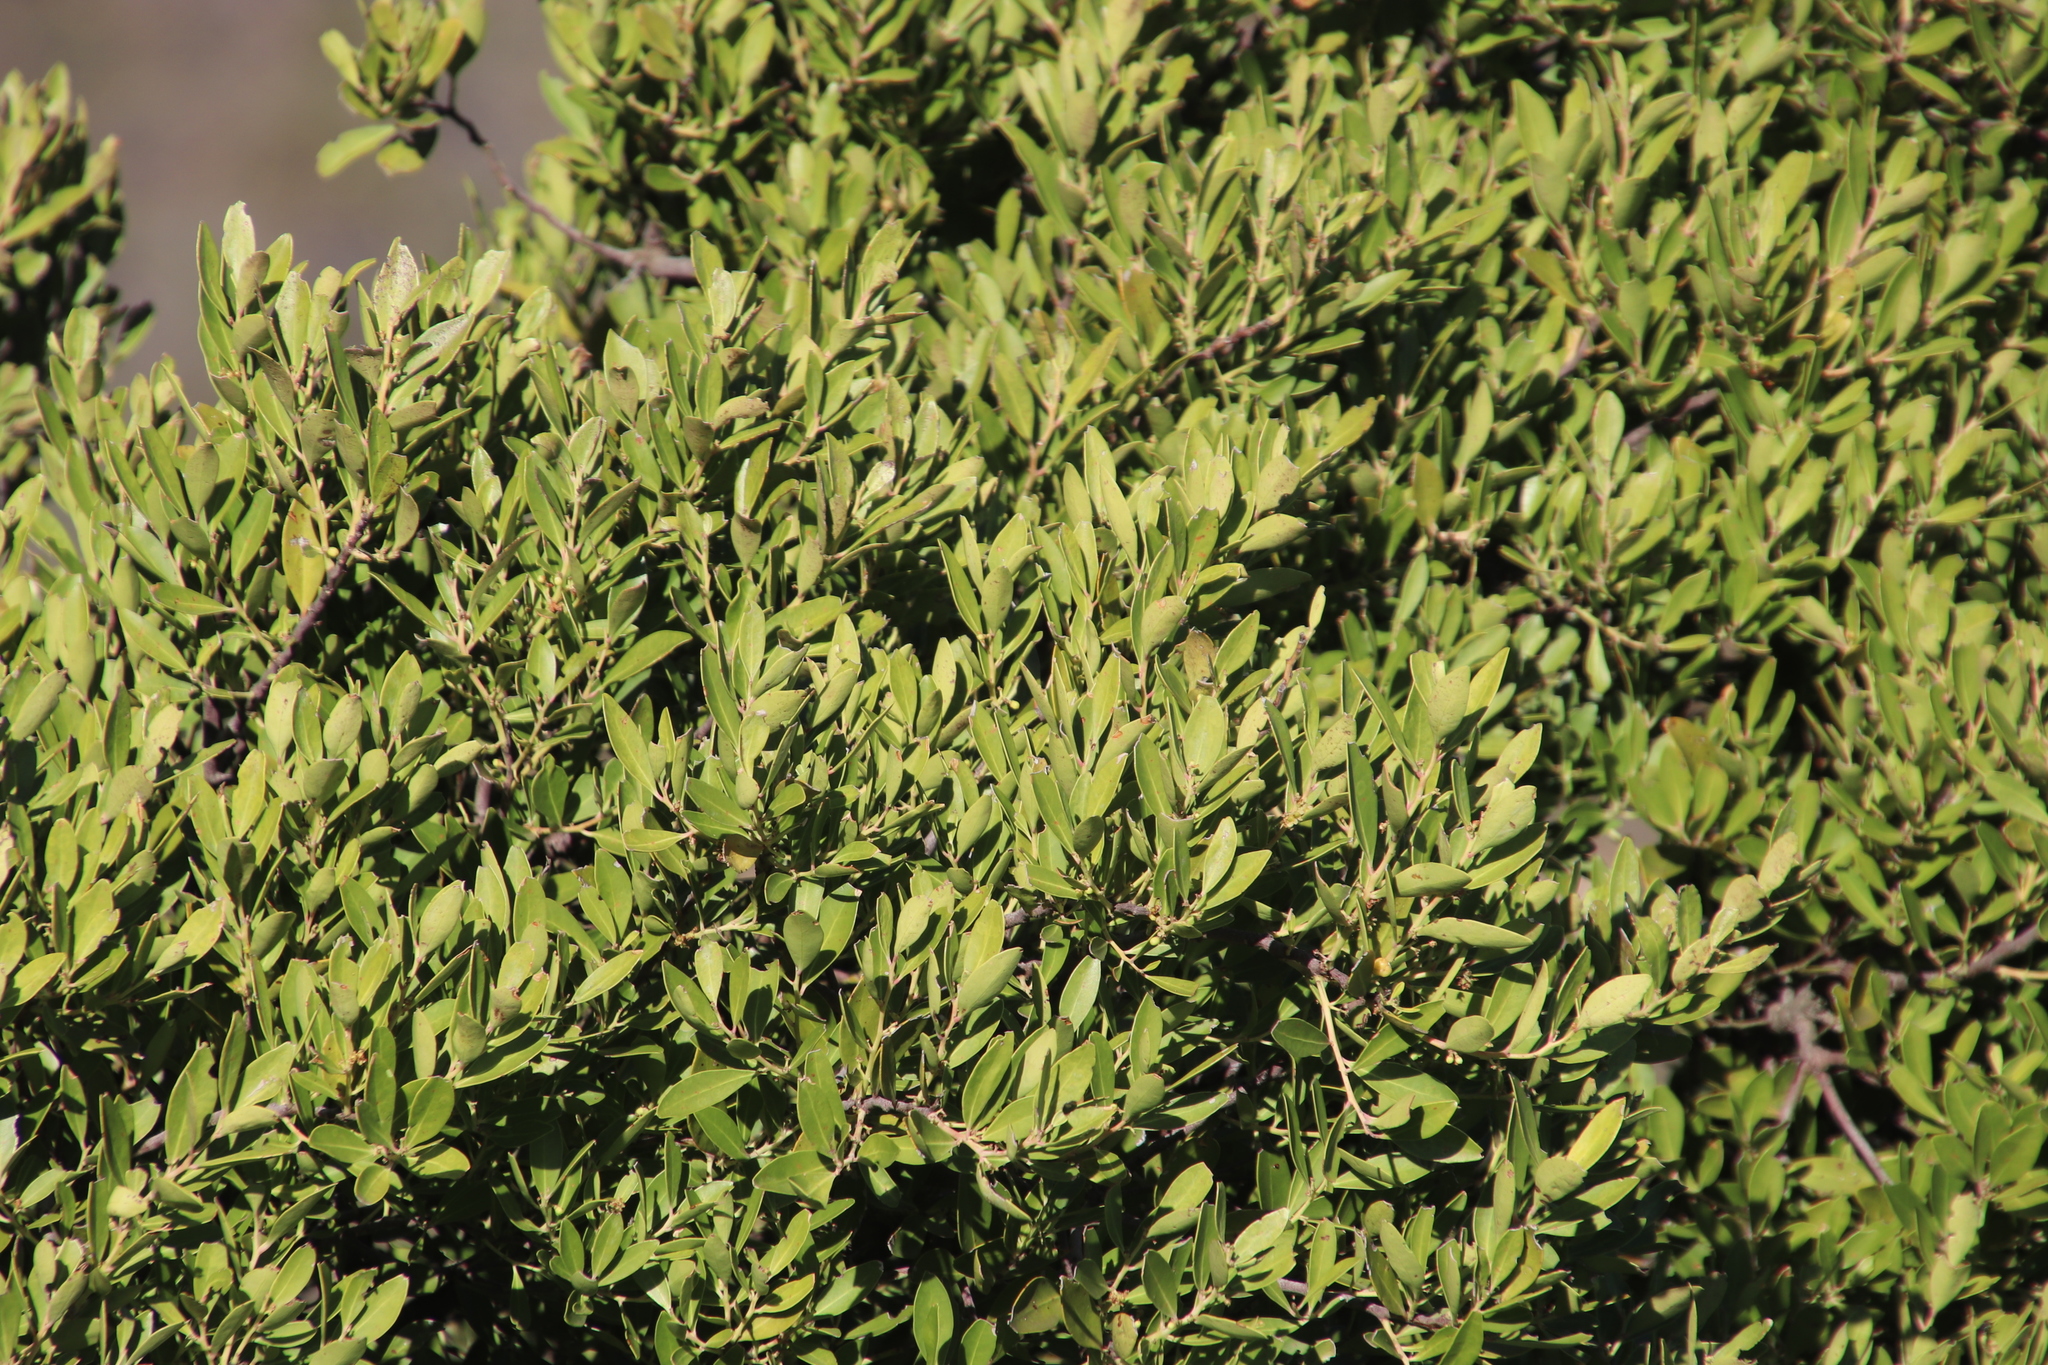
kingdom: Plantae
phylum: Tracheophyta
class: Magnoliopsida
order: Celastrales
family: Celastraceae
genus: Gymnosporia
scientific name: Gymnosporia laurina
